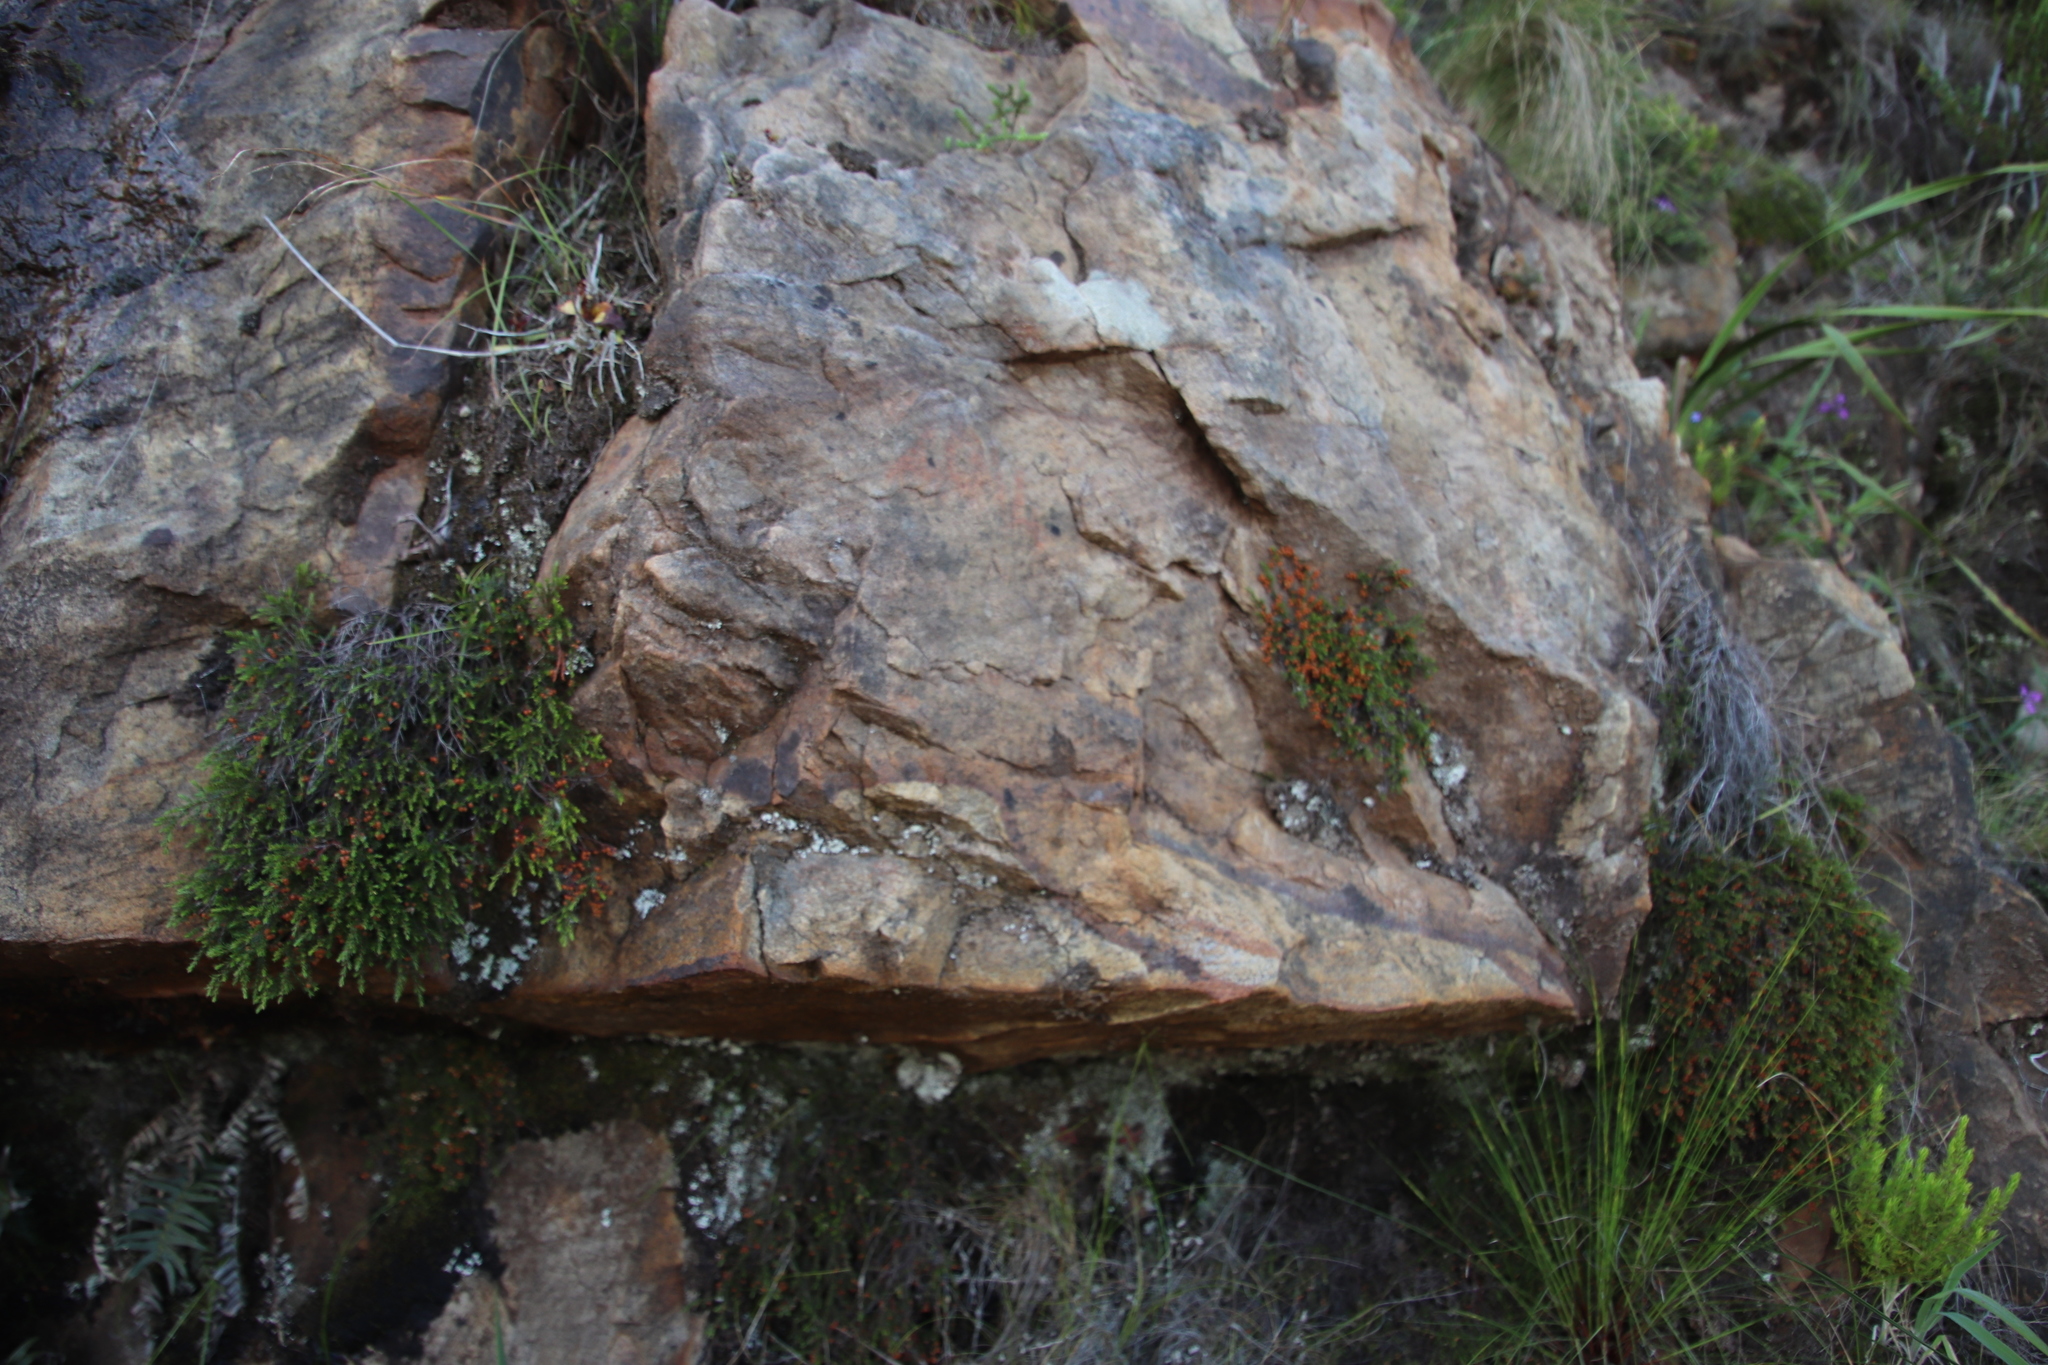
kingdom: Plantae
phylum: Tracheophyta
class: Magnoliopsida
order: Ericales
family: Ericaceae
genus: Erica
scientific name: Erica tenuis
